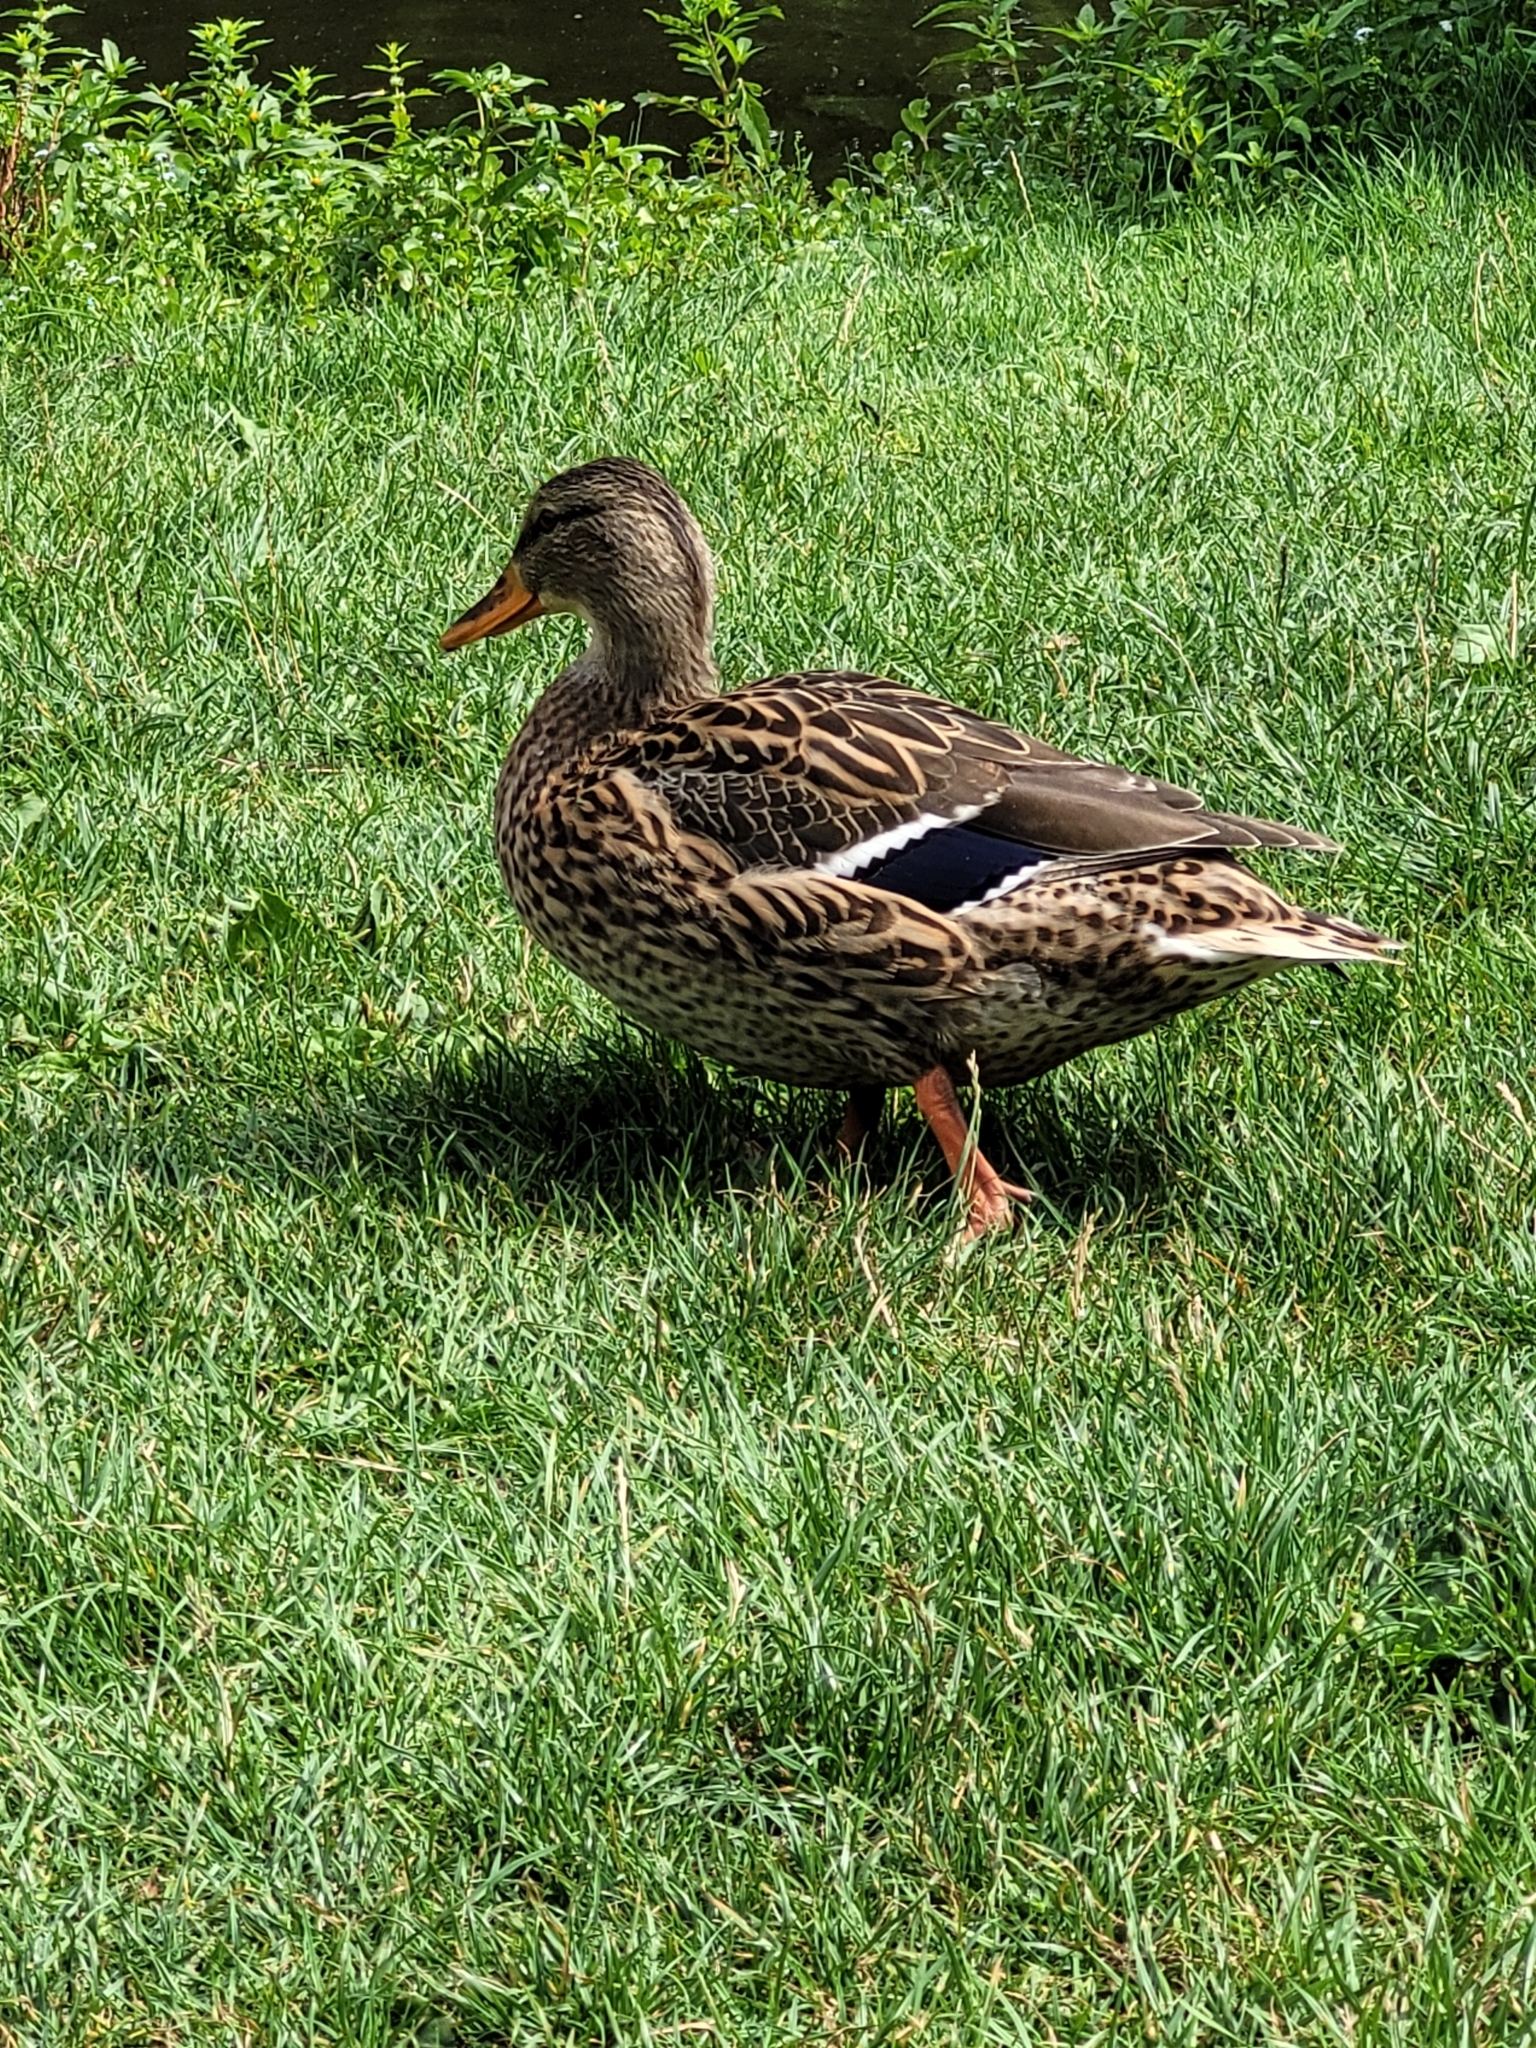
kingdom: Animalia
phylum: Chordata
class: Aves
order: Anseriformes
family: Anatidae
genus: Anas
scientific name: Anas platyrhynchos
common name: Mallard
